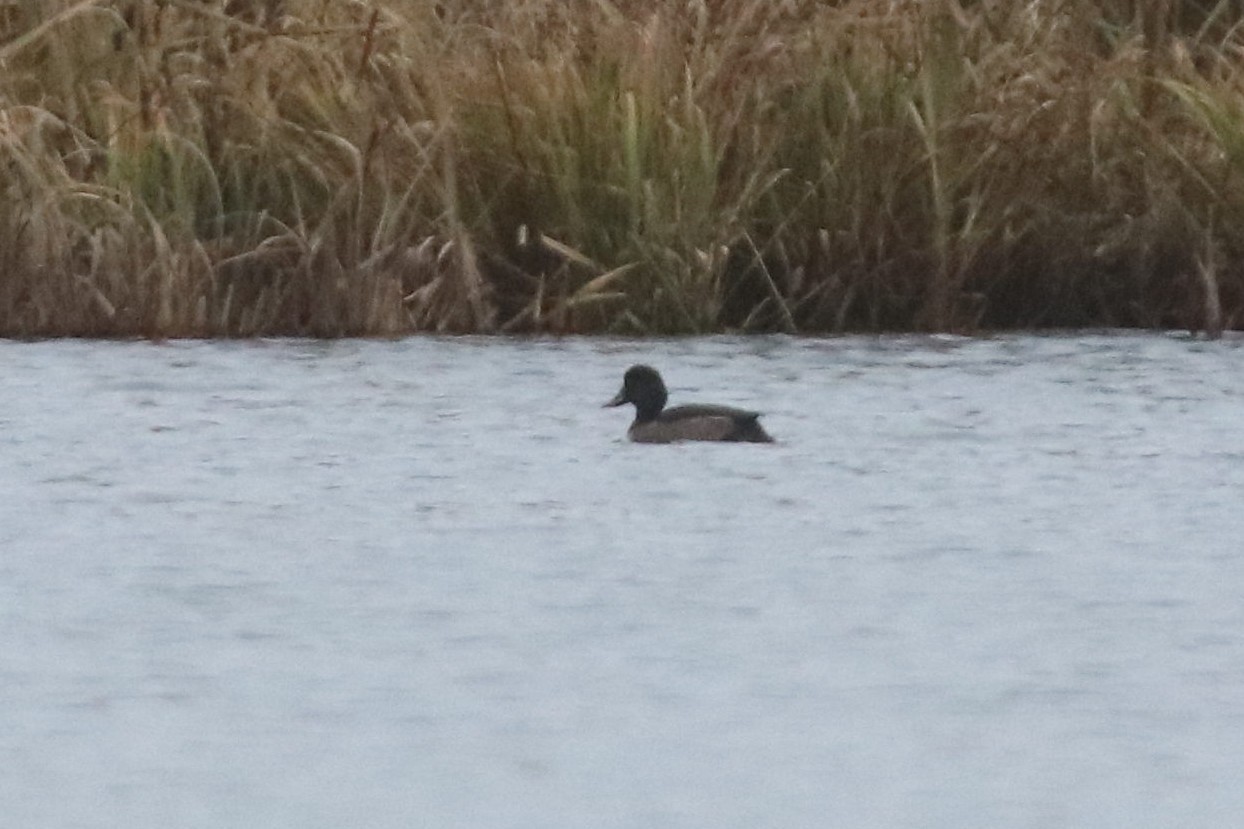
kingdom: Animalia
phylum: Chordata
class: Aves
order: Anseriformes
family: Anatidae
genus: Aythya
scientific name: Aythya fuligula
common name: Tufted duck
